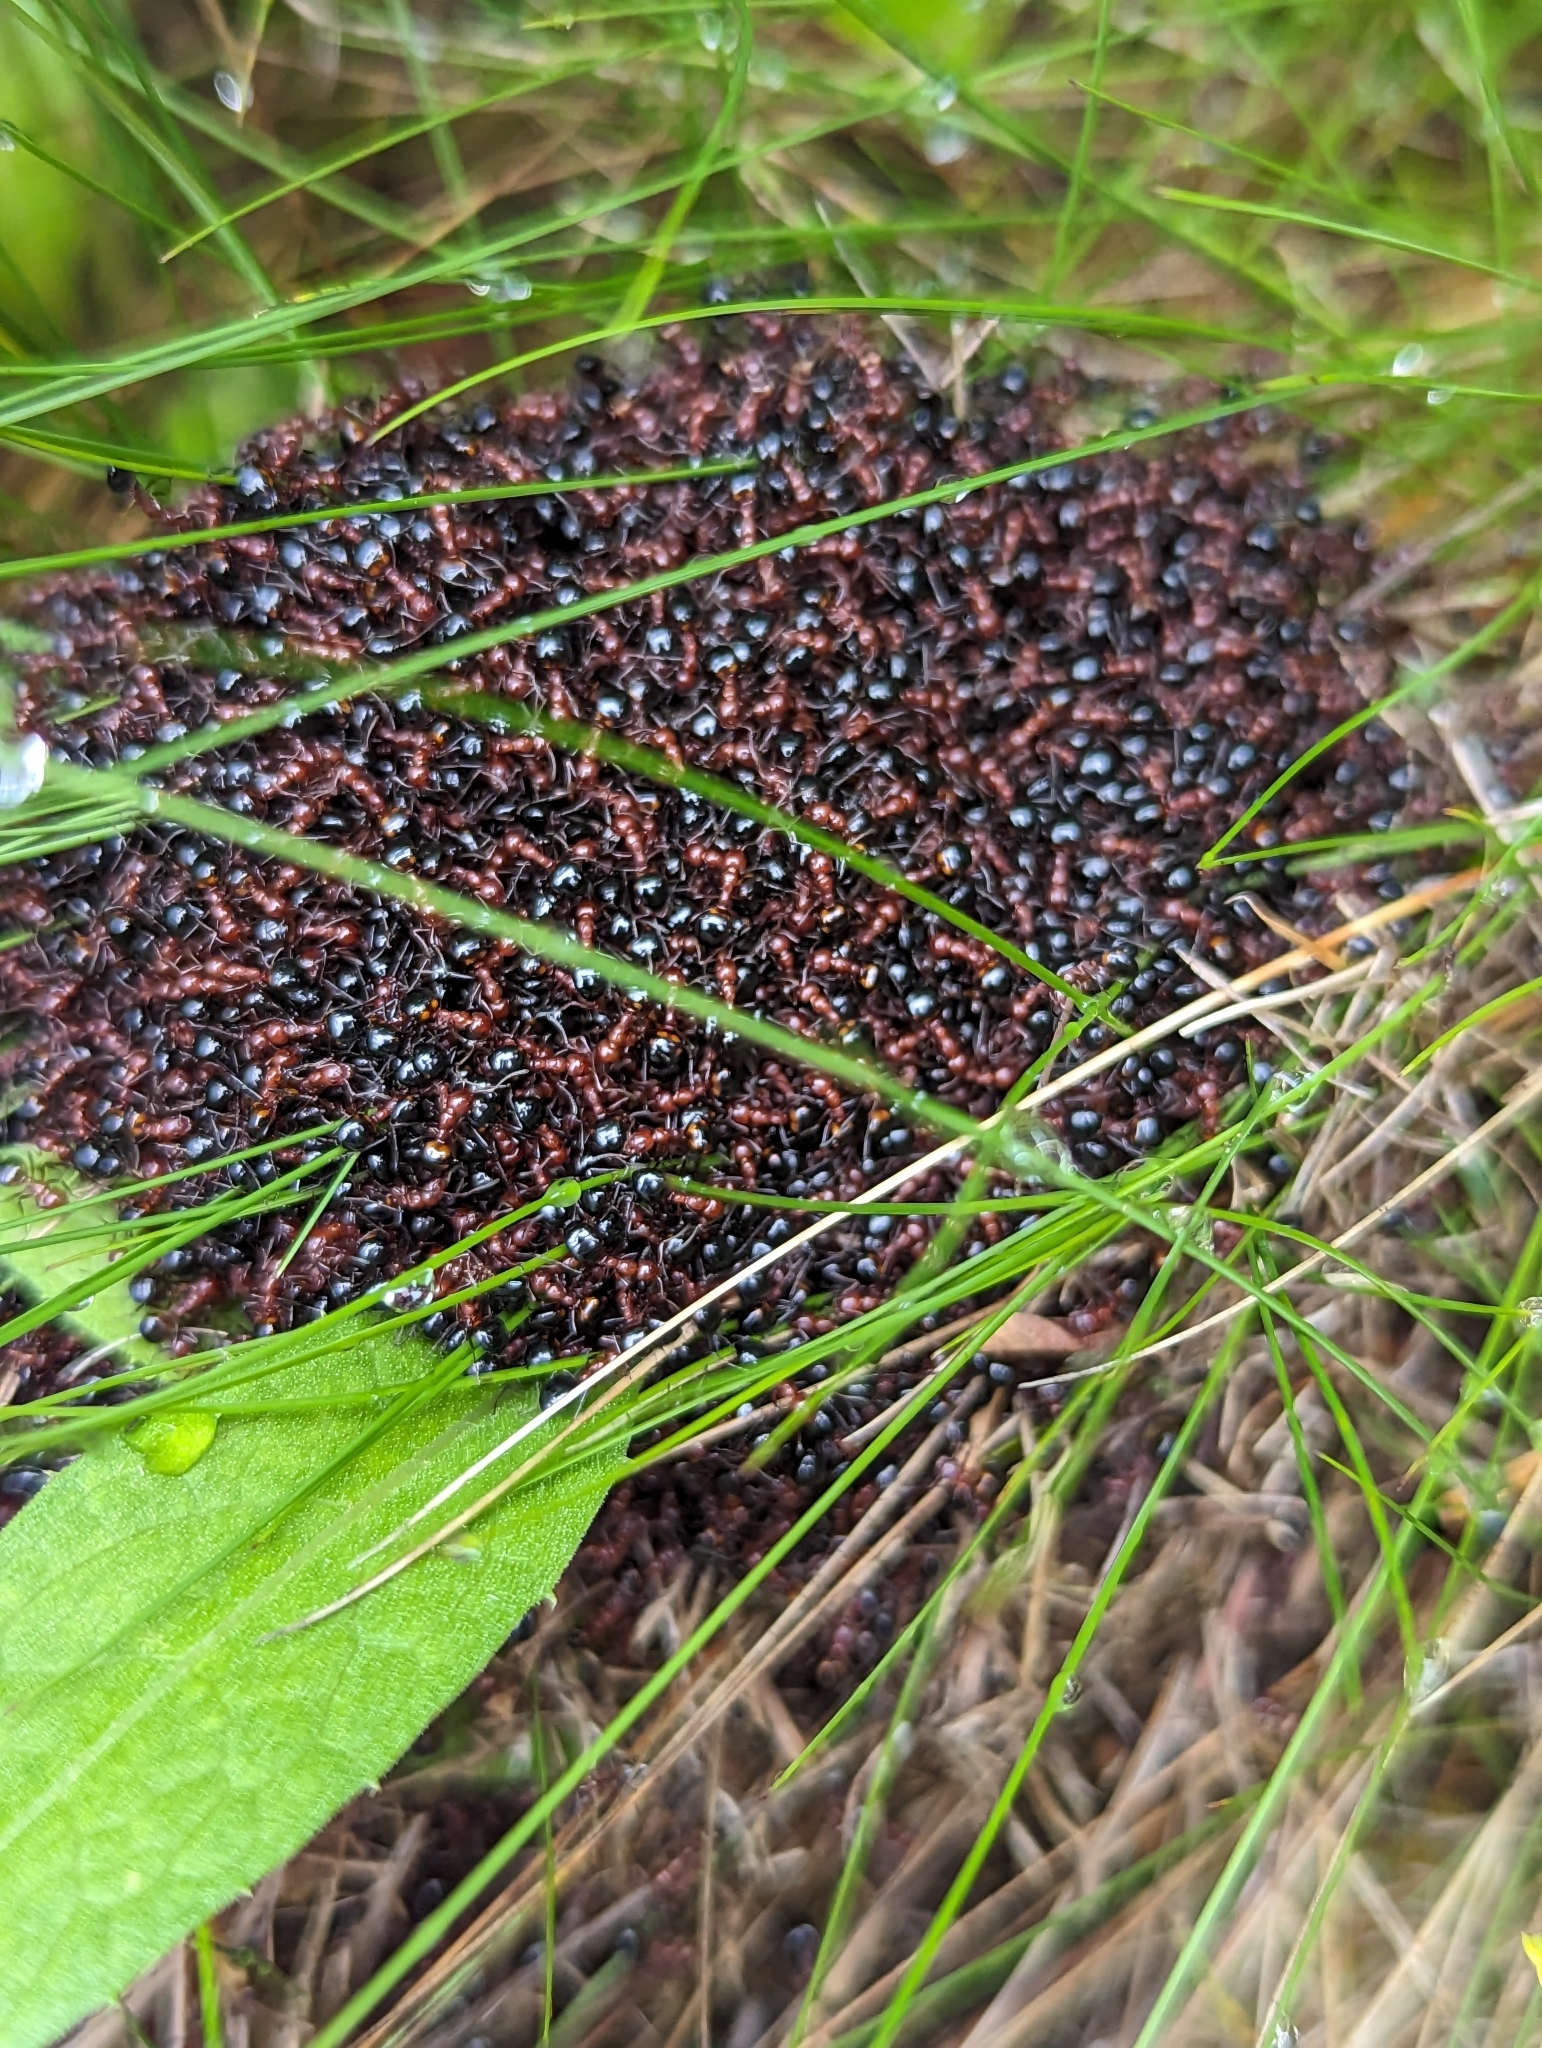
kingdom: Animalia
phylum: Arthropoda
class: Insecta
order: Hymenoptera
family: Formicidae
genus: Dolichoderus
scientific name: Dolichoderus mariae
